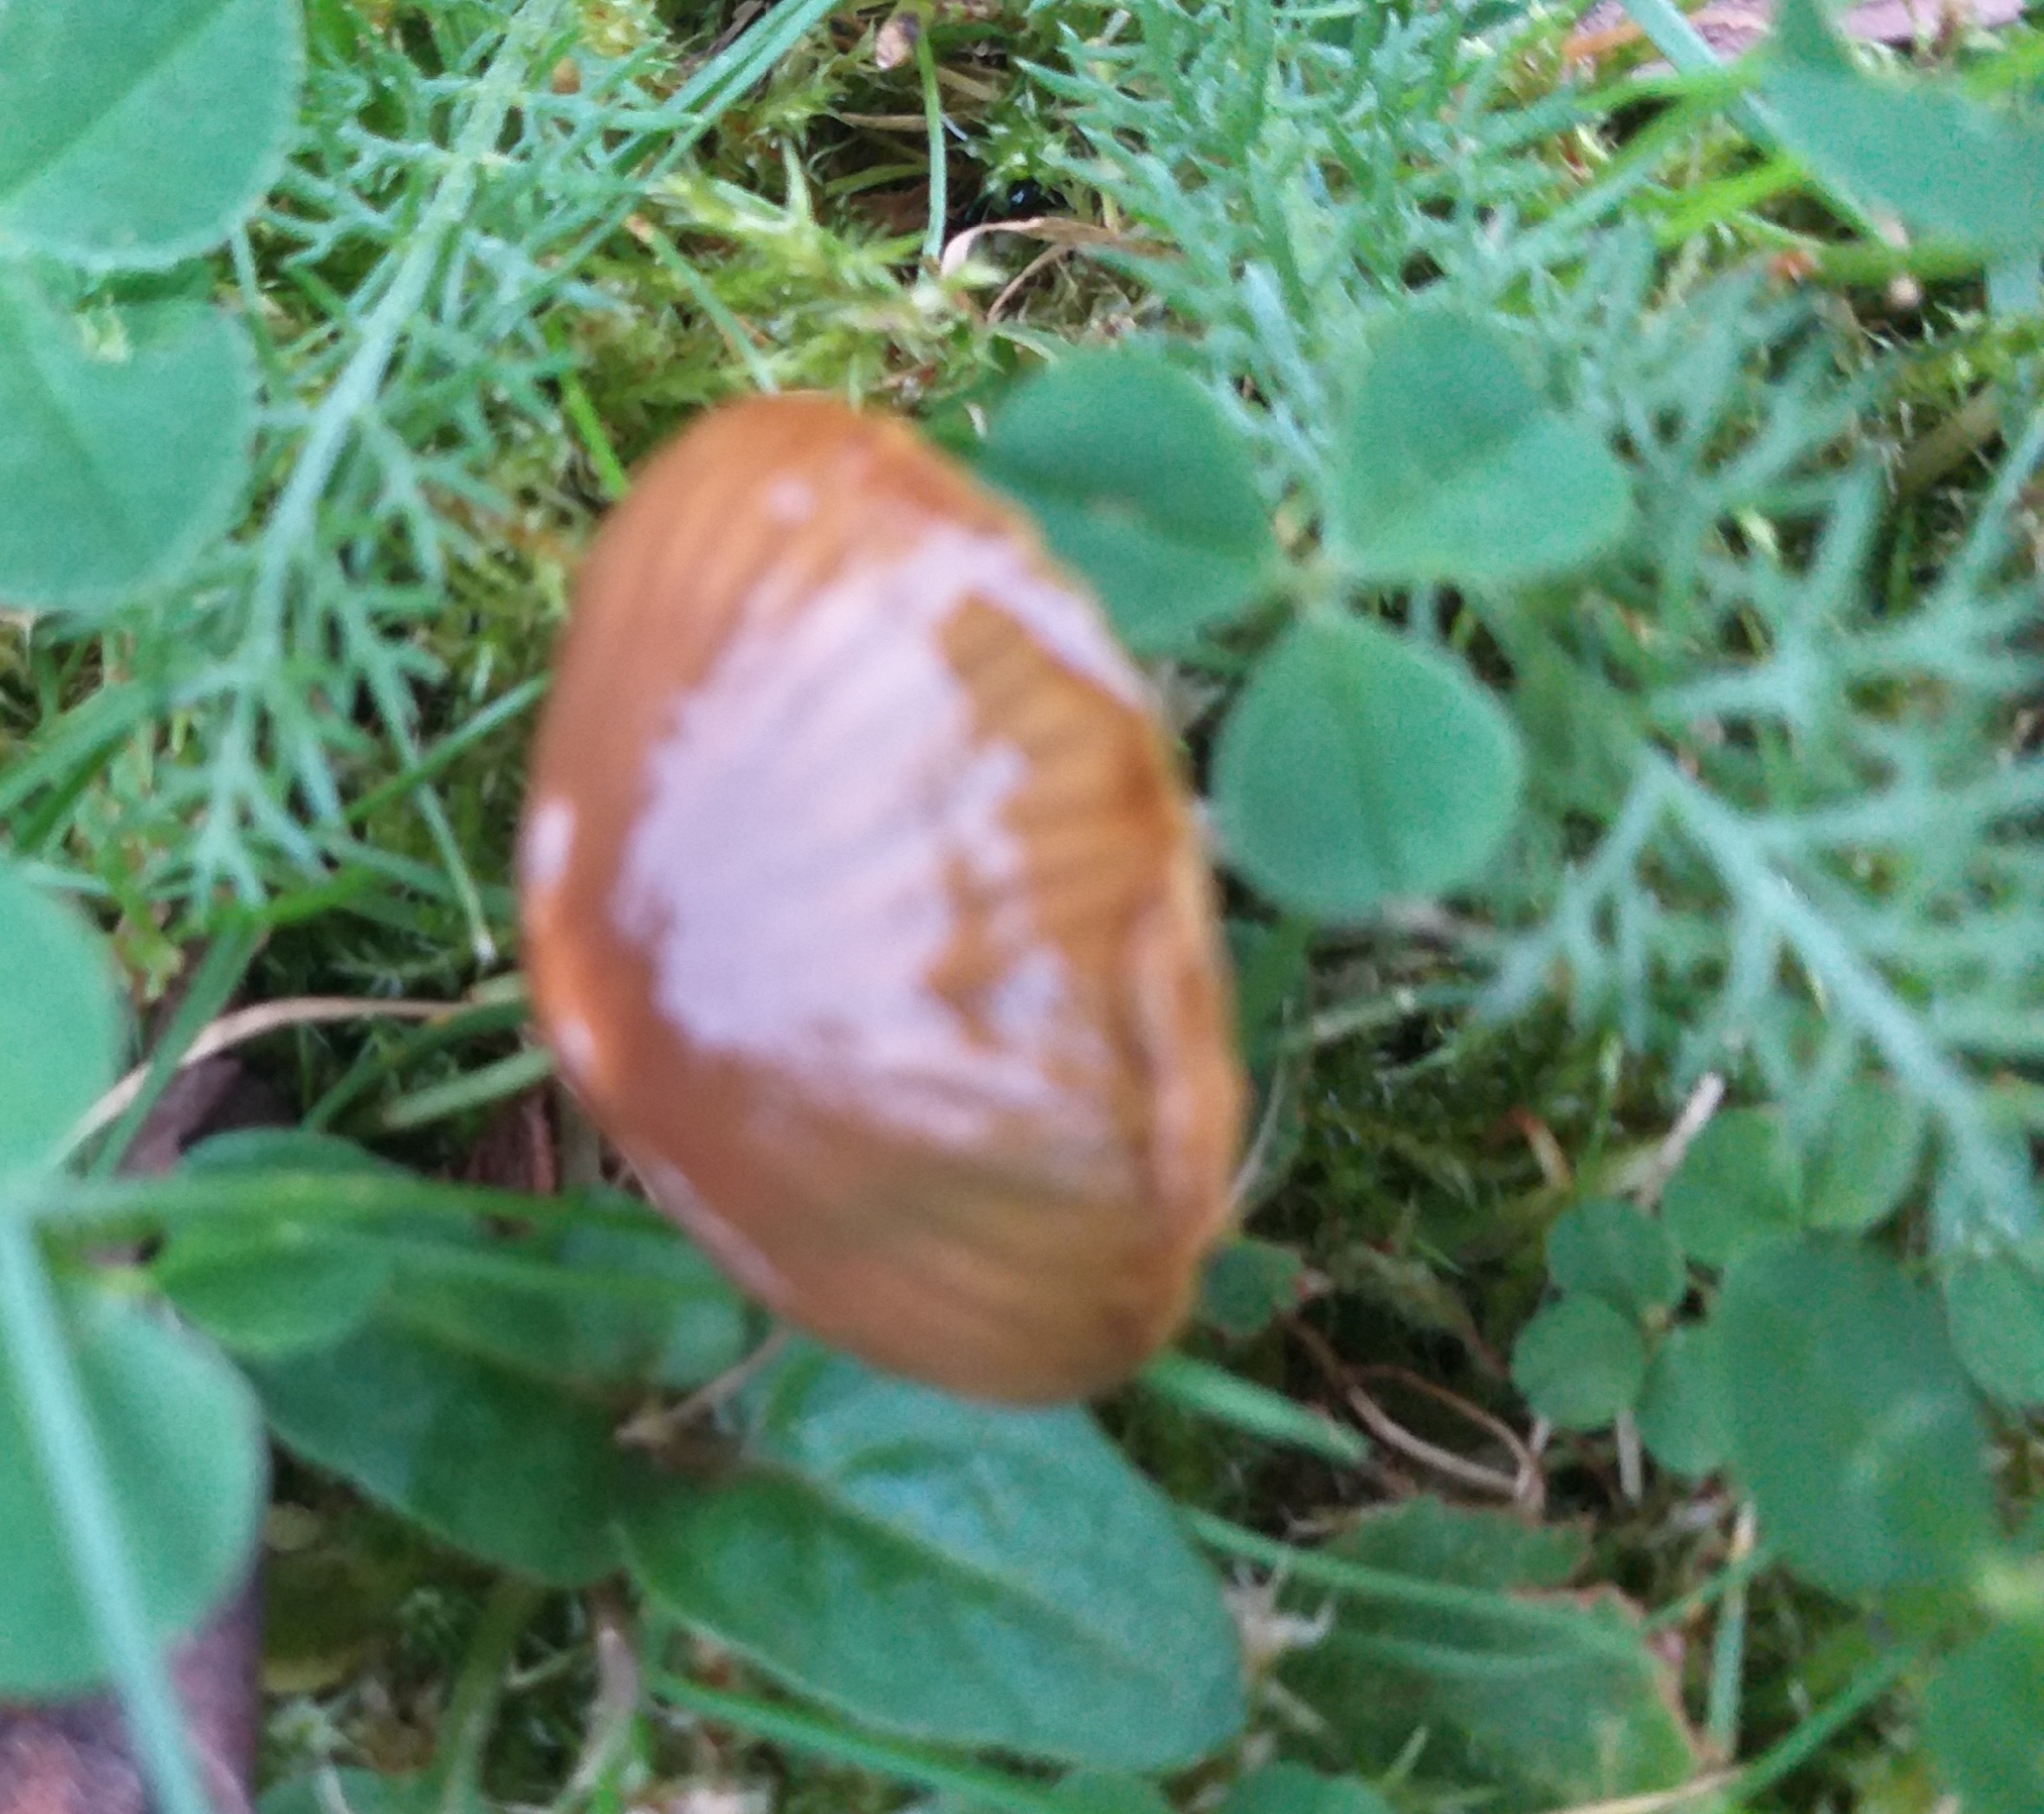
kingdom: Fungi
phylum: Basidiomycota
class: Agaricomycetes
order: Agaricales
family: Hygrophoraceae
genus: Gliophorus
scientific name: Gliophorus psittacinus
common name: Parrot wax-cap
